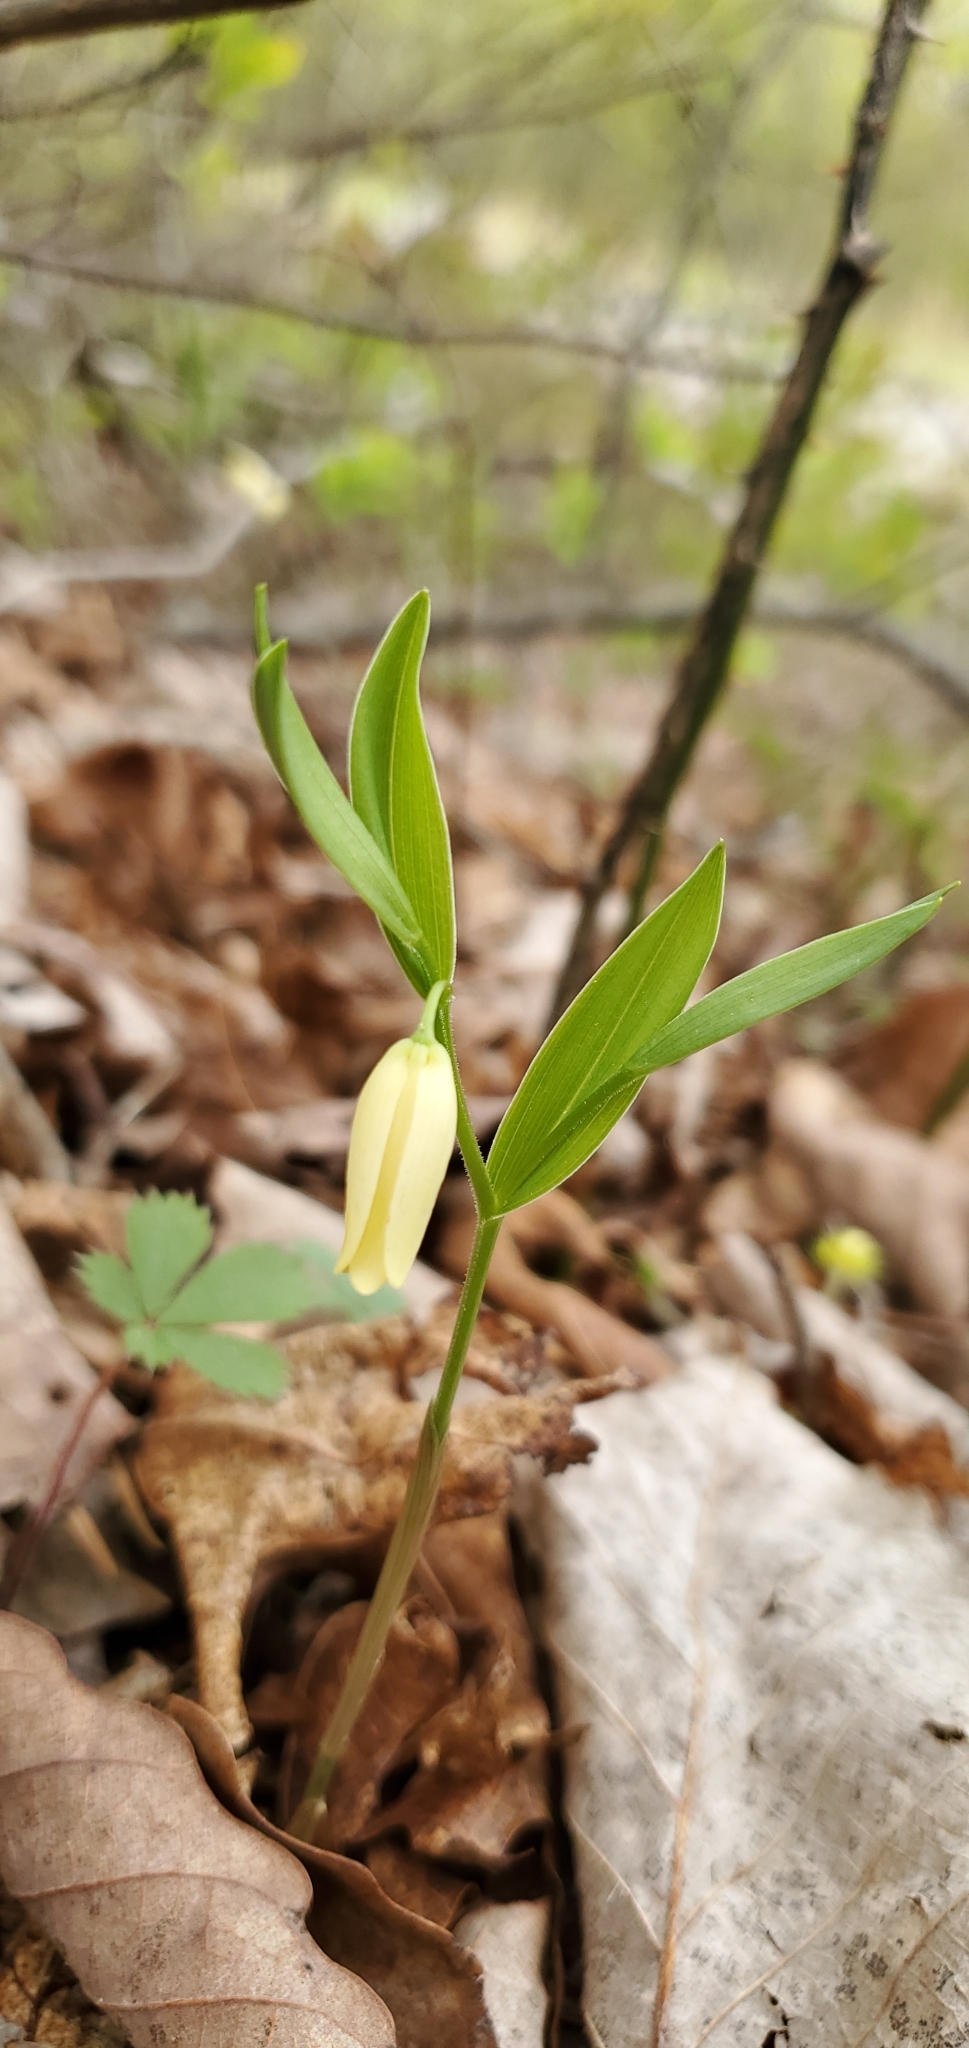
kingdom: Plantae
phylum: Tracheophyta
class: Liliopsida
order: Liliales
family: Colchicaceae
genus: Uvularia
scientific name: Uvularia puberula
